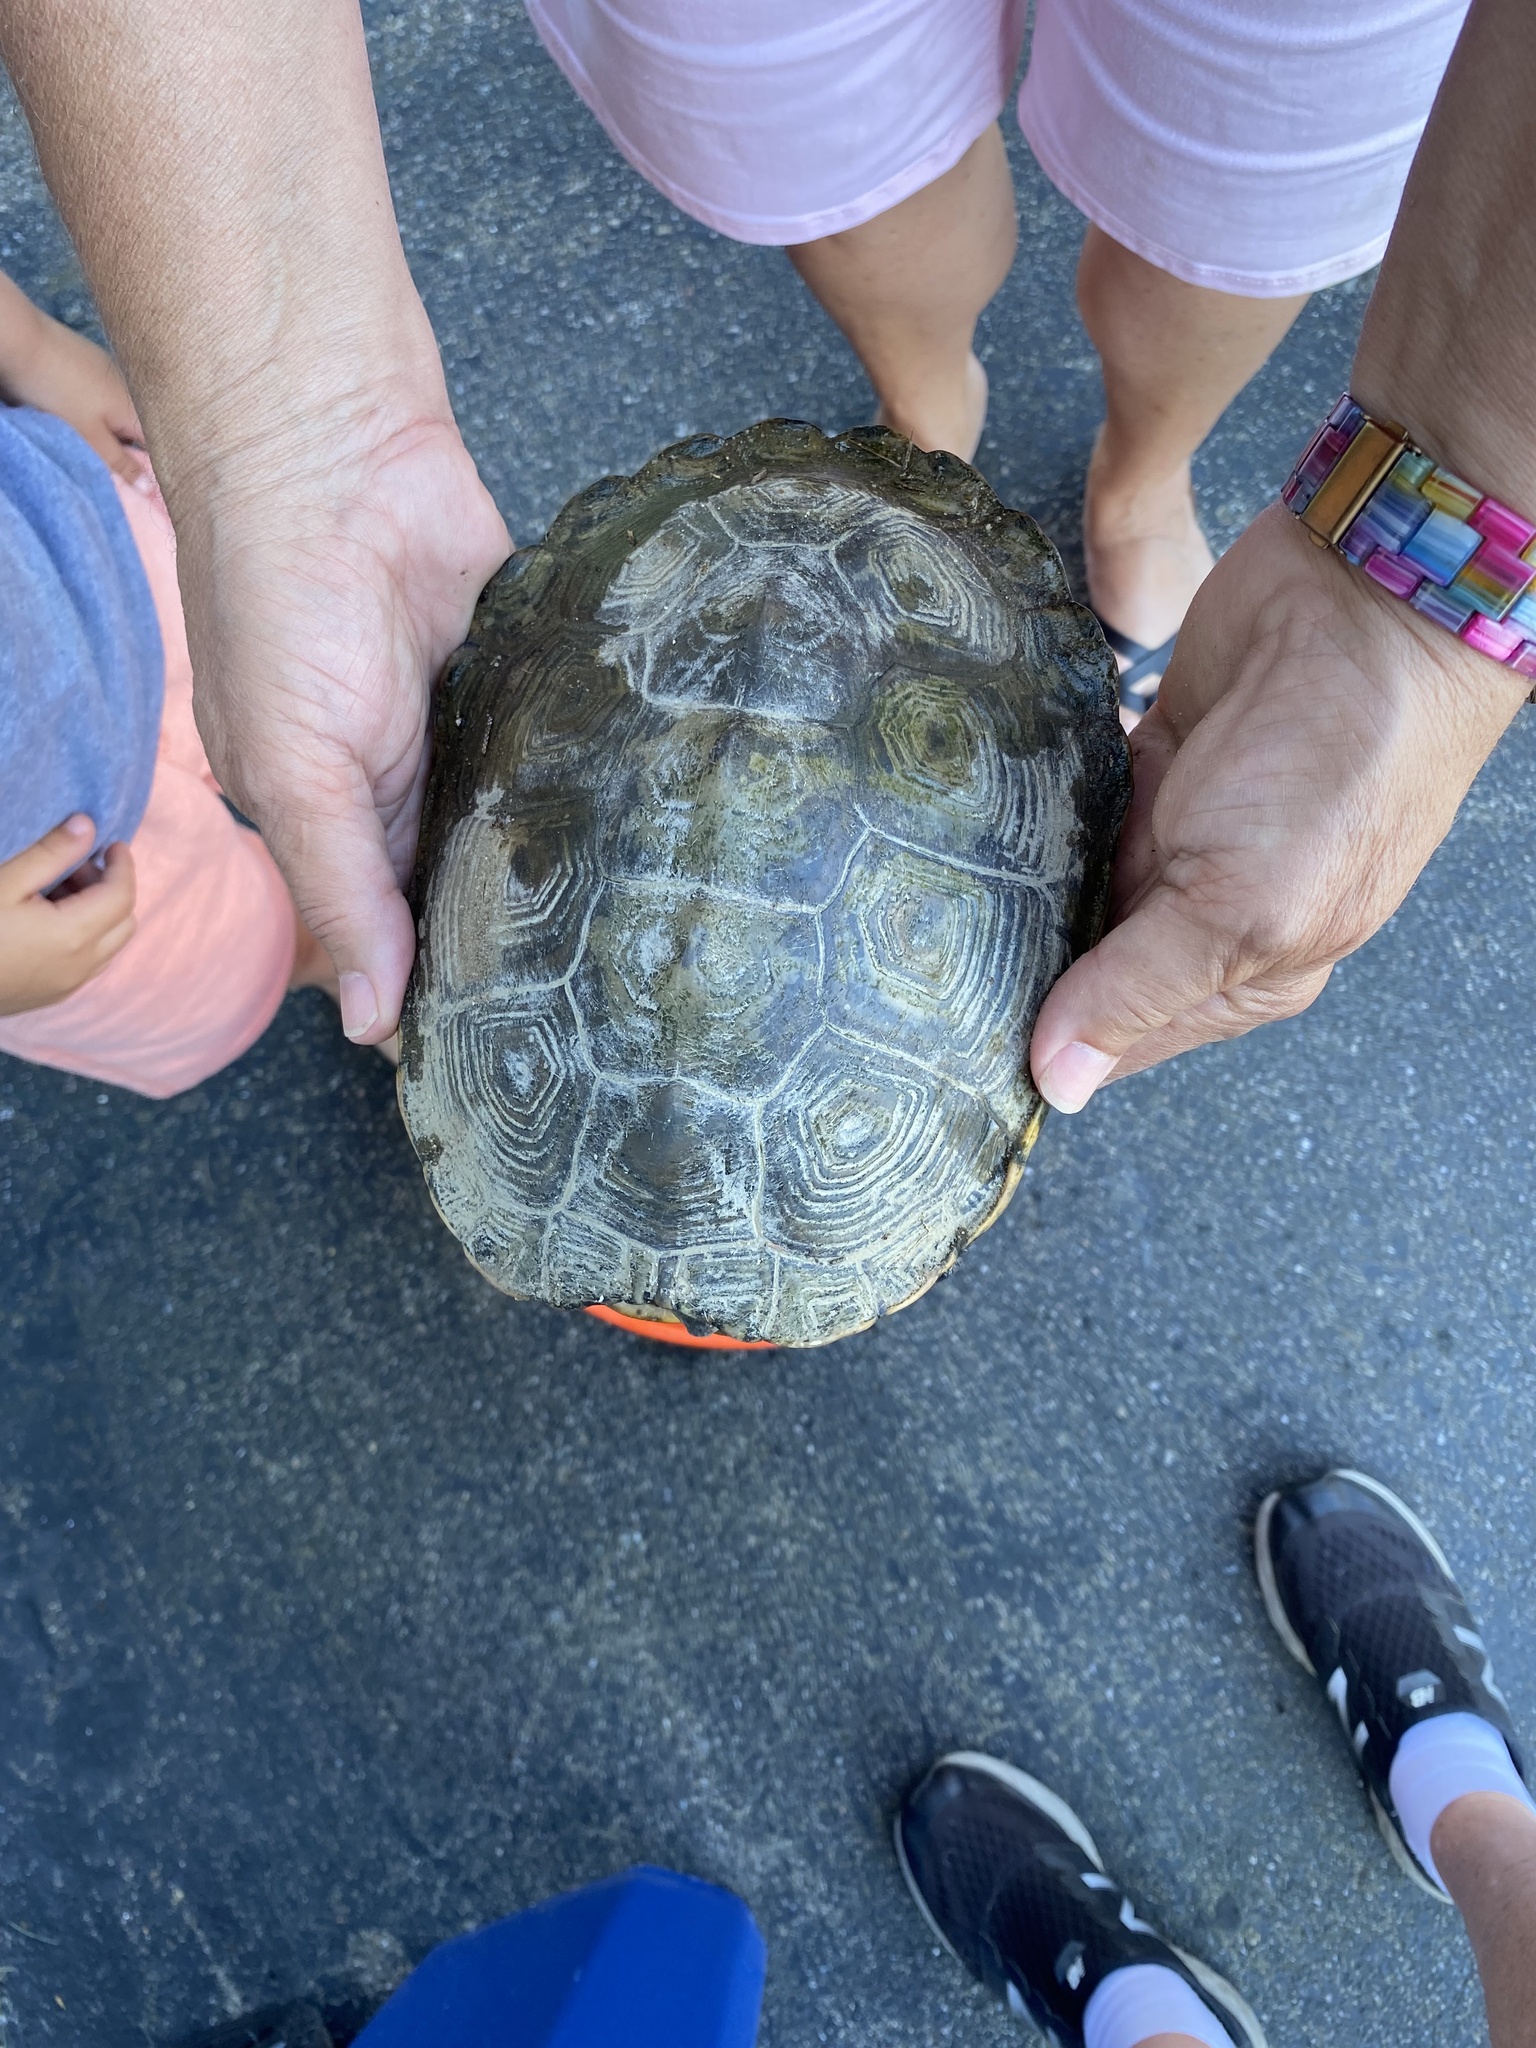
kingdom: Animalia
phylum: Chordata
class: Testudines
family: Emydidae
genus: Malaclemys
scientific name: Malaclemys terrapin
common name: Diamondback terrapin
